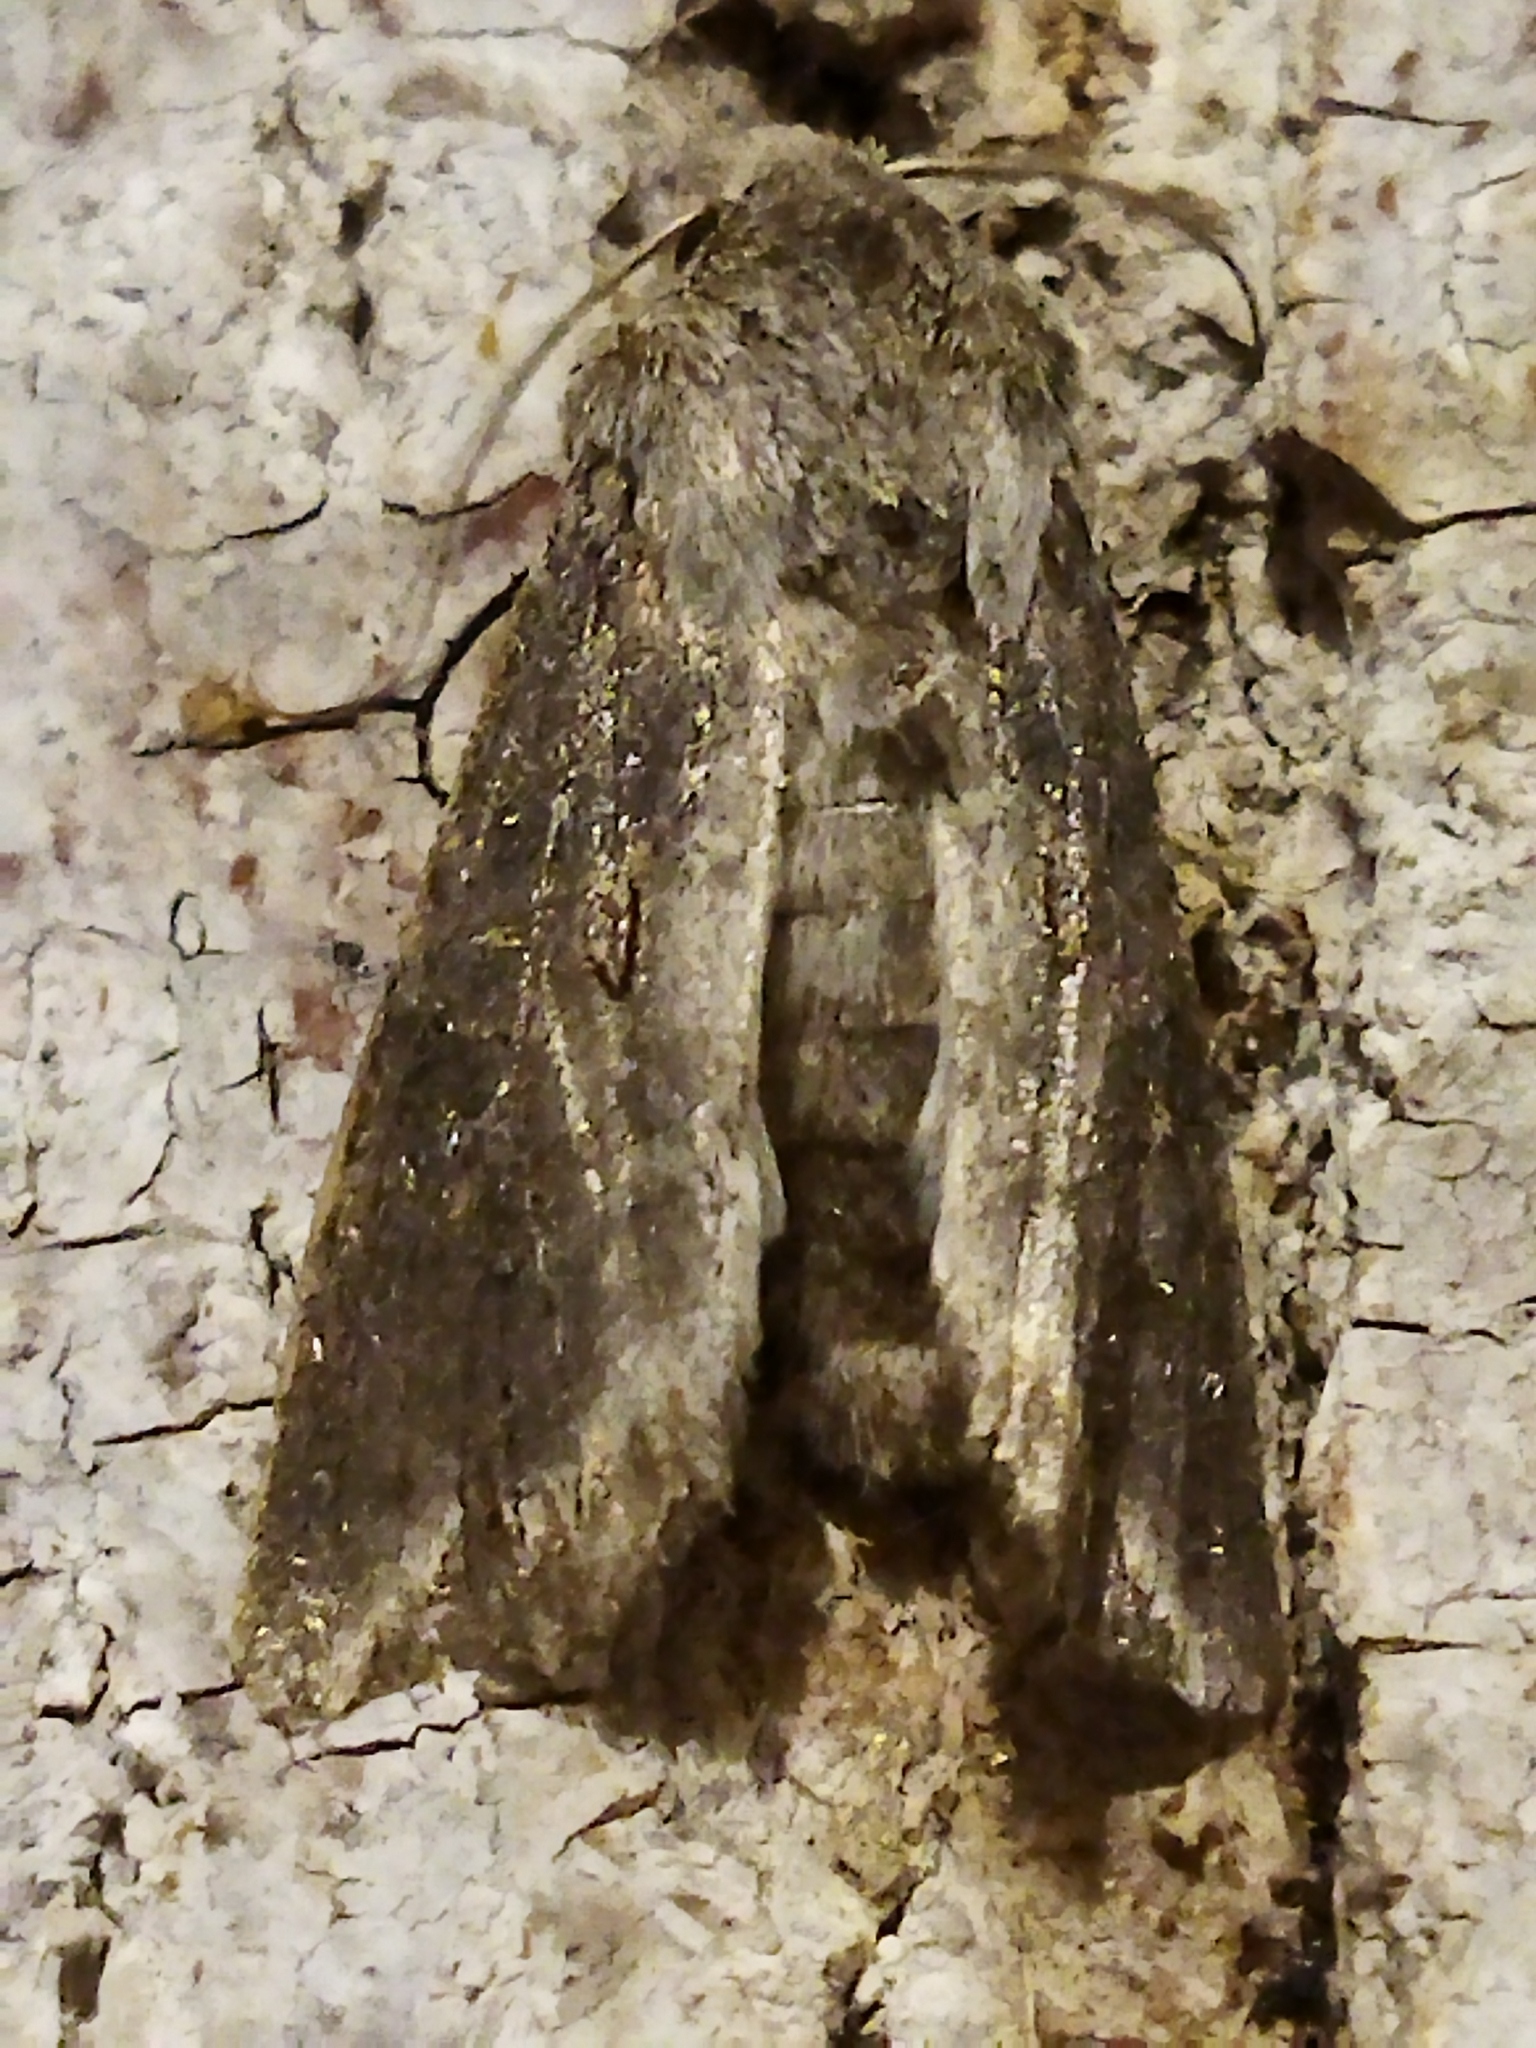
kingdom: Animalia
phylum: Arthropoda
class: Insecta
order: Lepidoptera
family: Noctuidae
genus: Egira
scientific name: Egira
